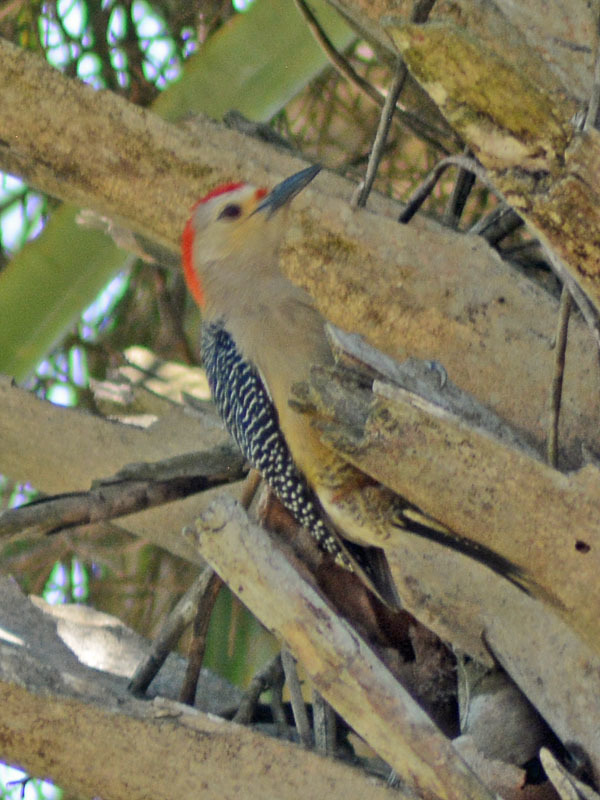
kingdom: Animalia
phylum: Chordata
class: Aves
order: Piciformes
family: Picidae
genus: Melanerpes
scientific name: Melanerpes aurifrons
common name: Golden-fronted woodpecker
